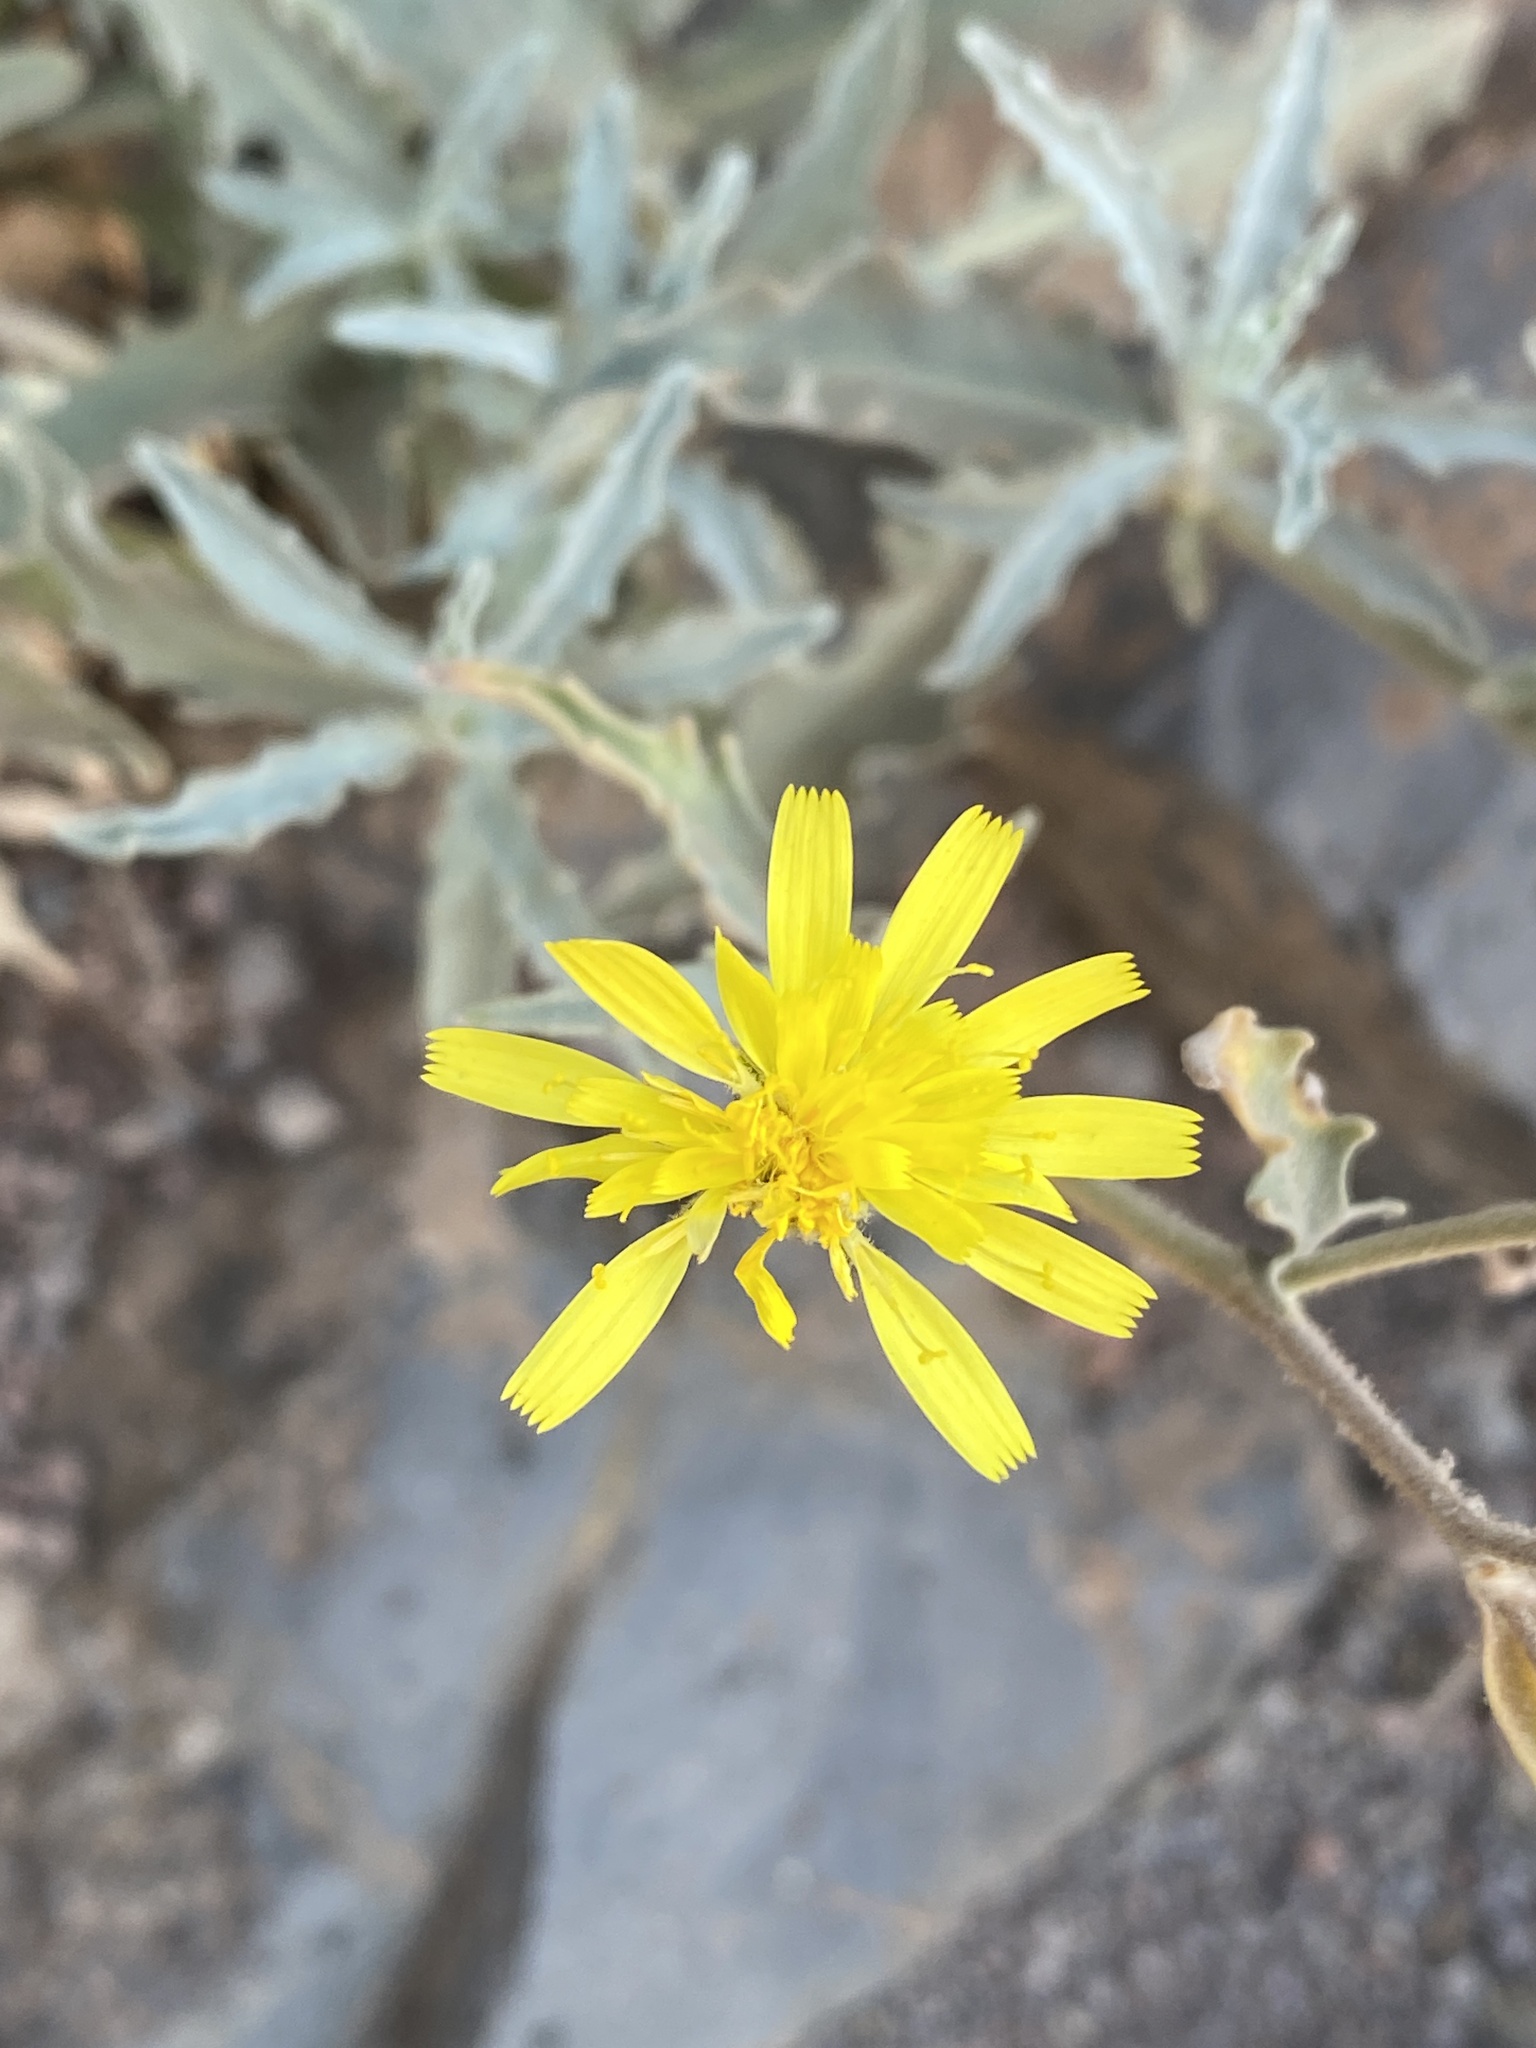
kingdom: Plantae
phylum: Tracheophyta
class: Magnoliopsida
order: Asterales
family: Asteraceae
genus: Andryala
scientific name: Andryala webbii
